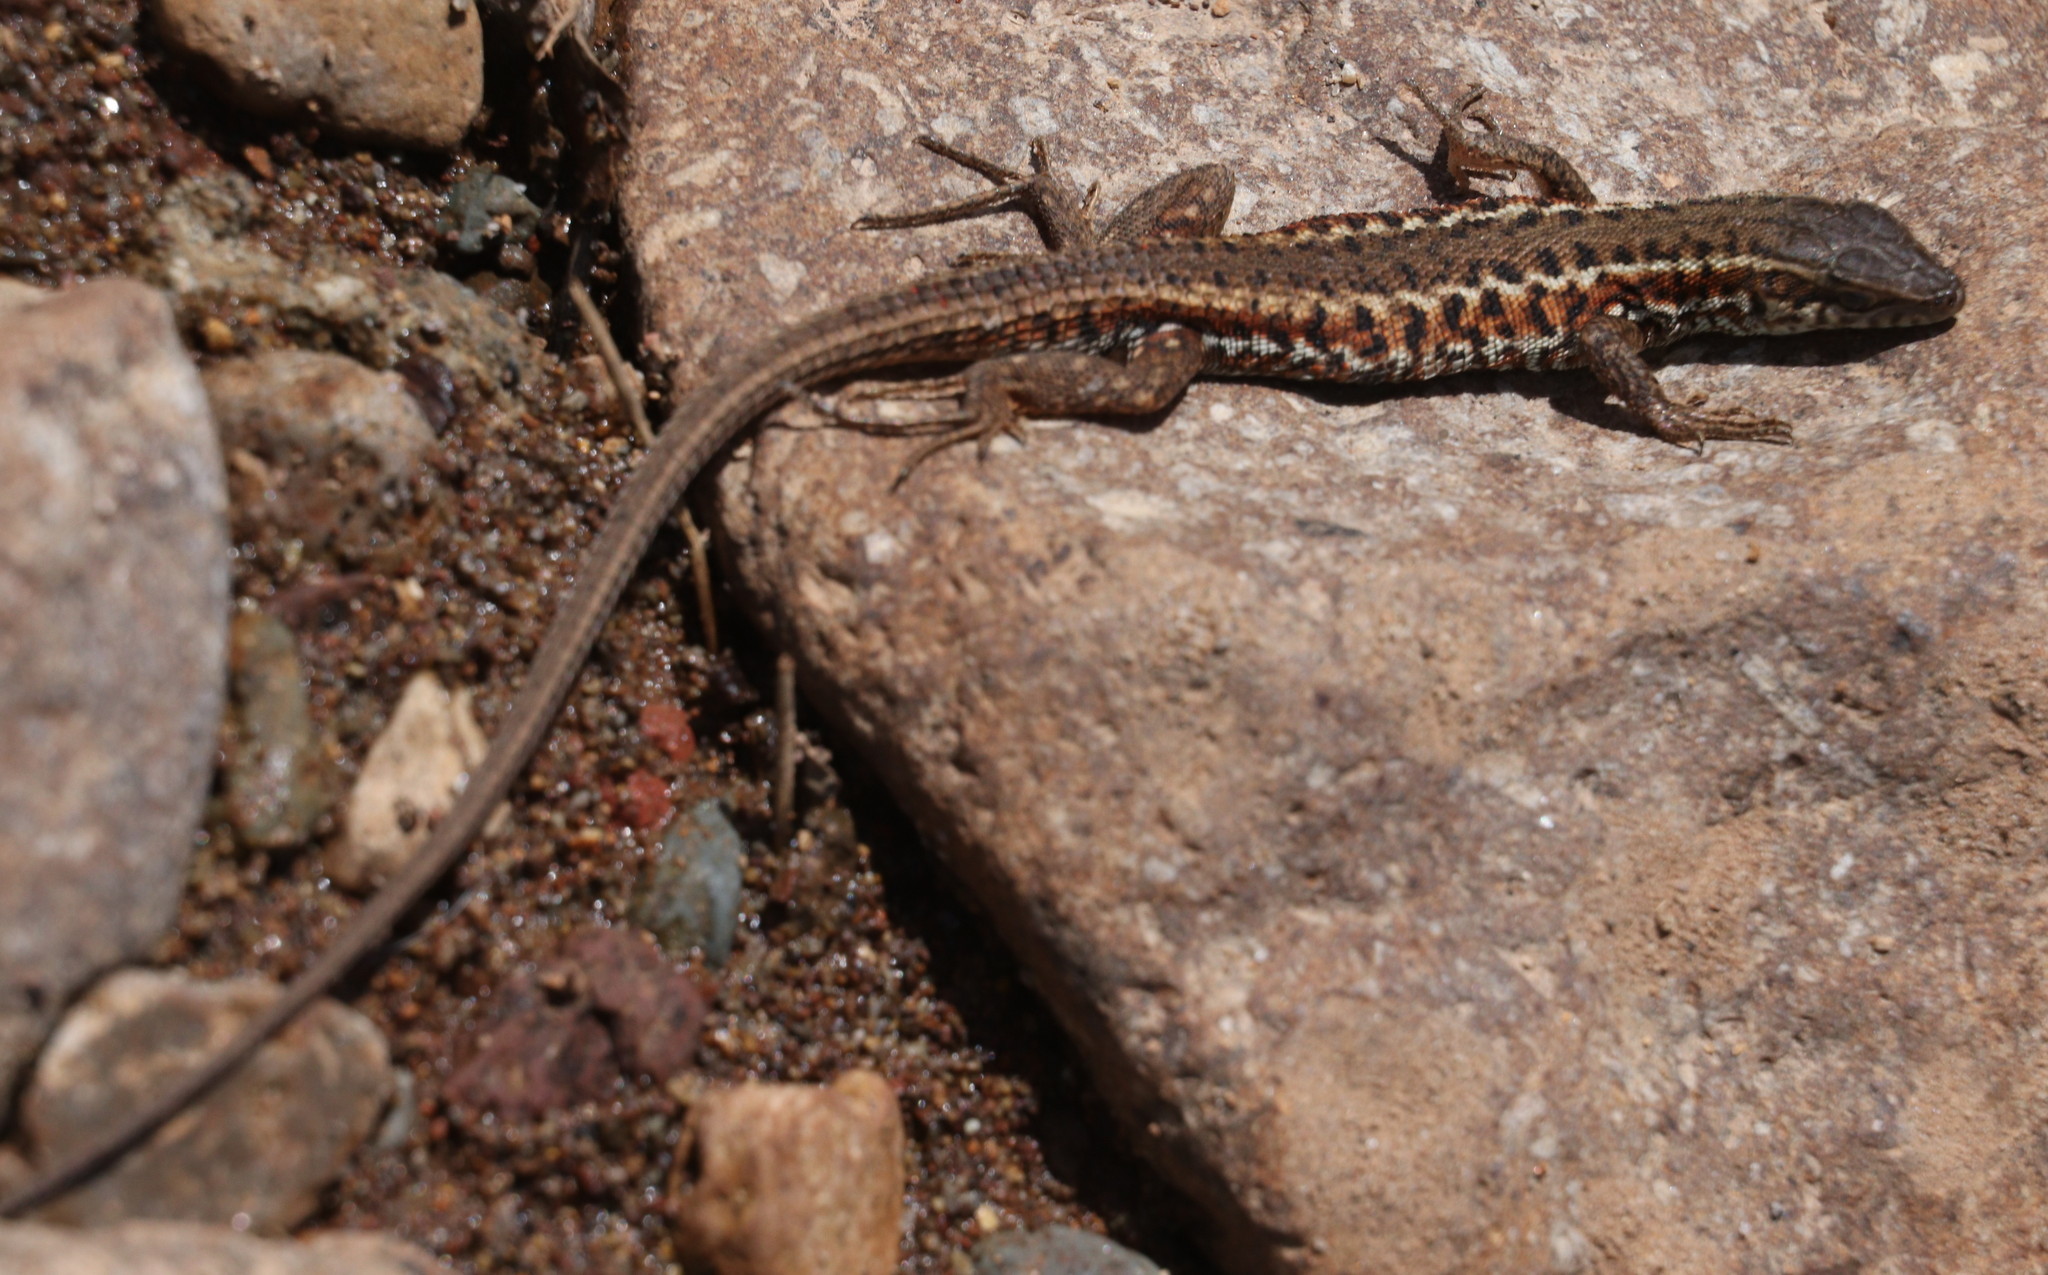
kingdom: Animalia
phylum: Chordata
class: Squamata
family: Lacertidae
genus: Ophisops
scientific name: Ophisops elegans
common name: Snake-eyed lizard
